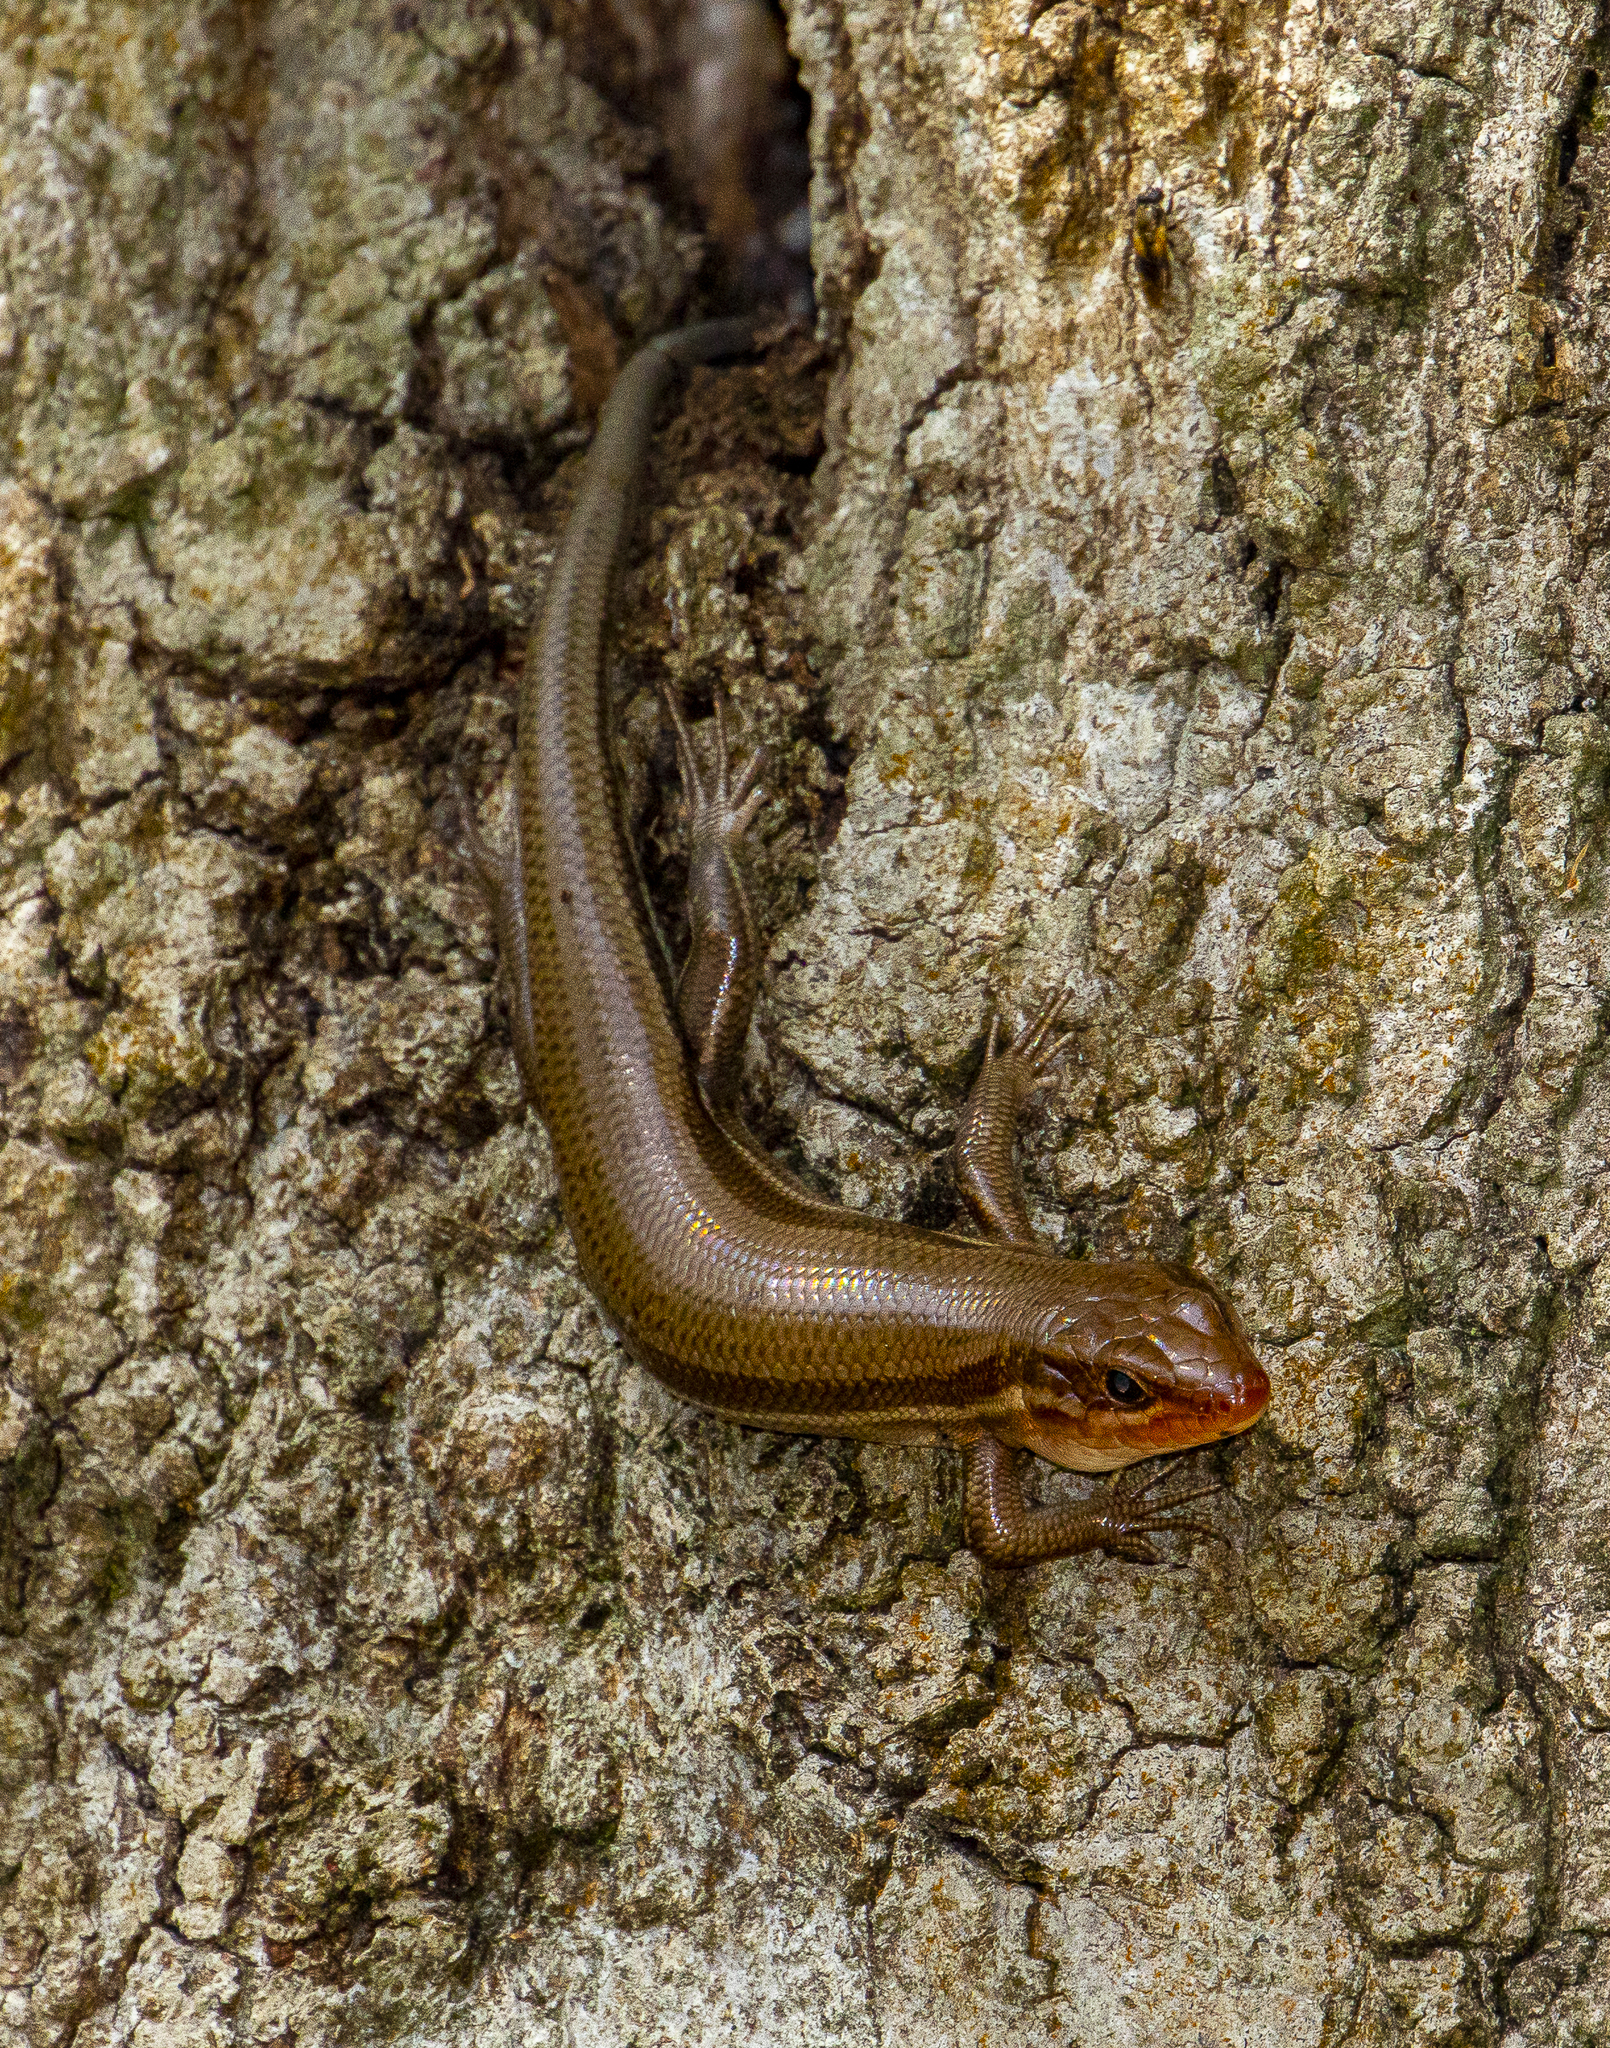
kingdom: Animalia
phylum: Chordata
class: Squamata
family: Scincidae
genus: Plestiodon
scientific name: Plestiodon laticeps
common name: Broadhead skink
